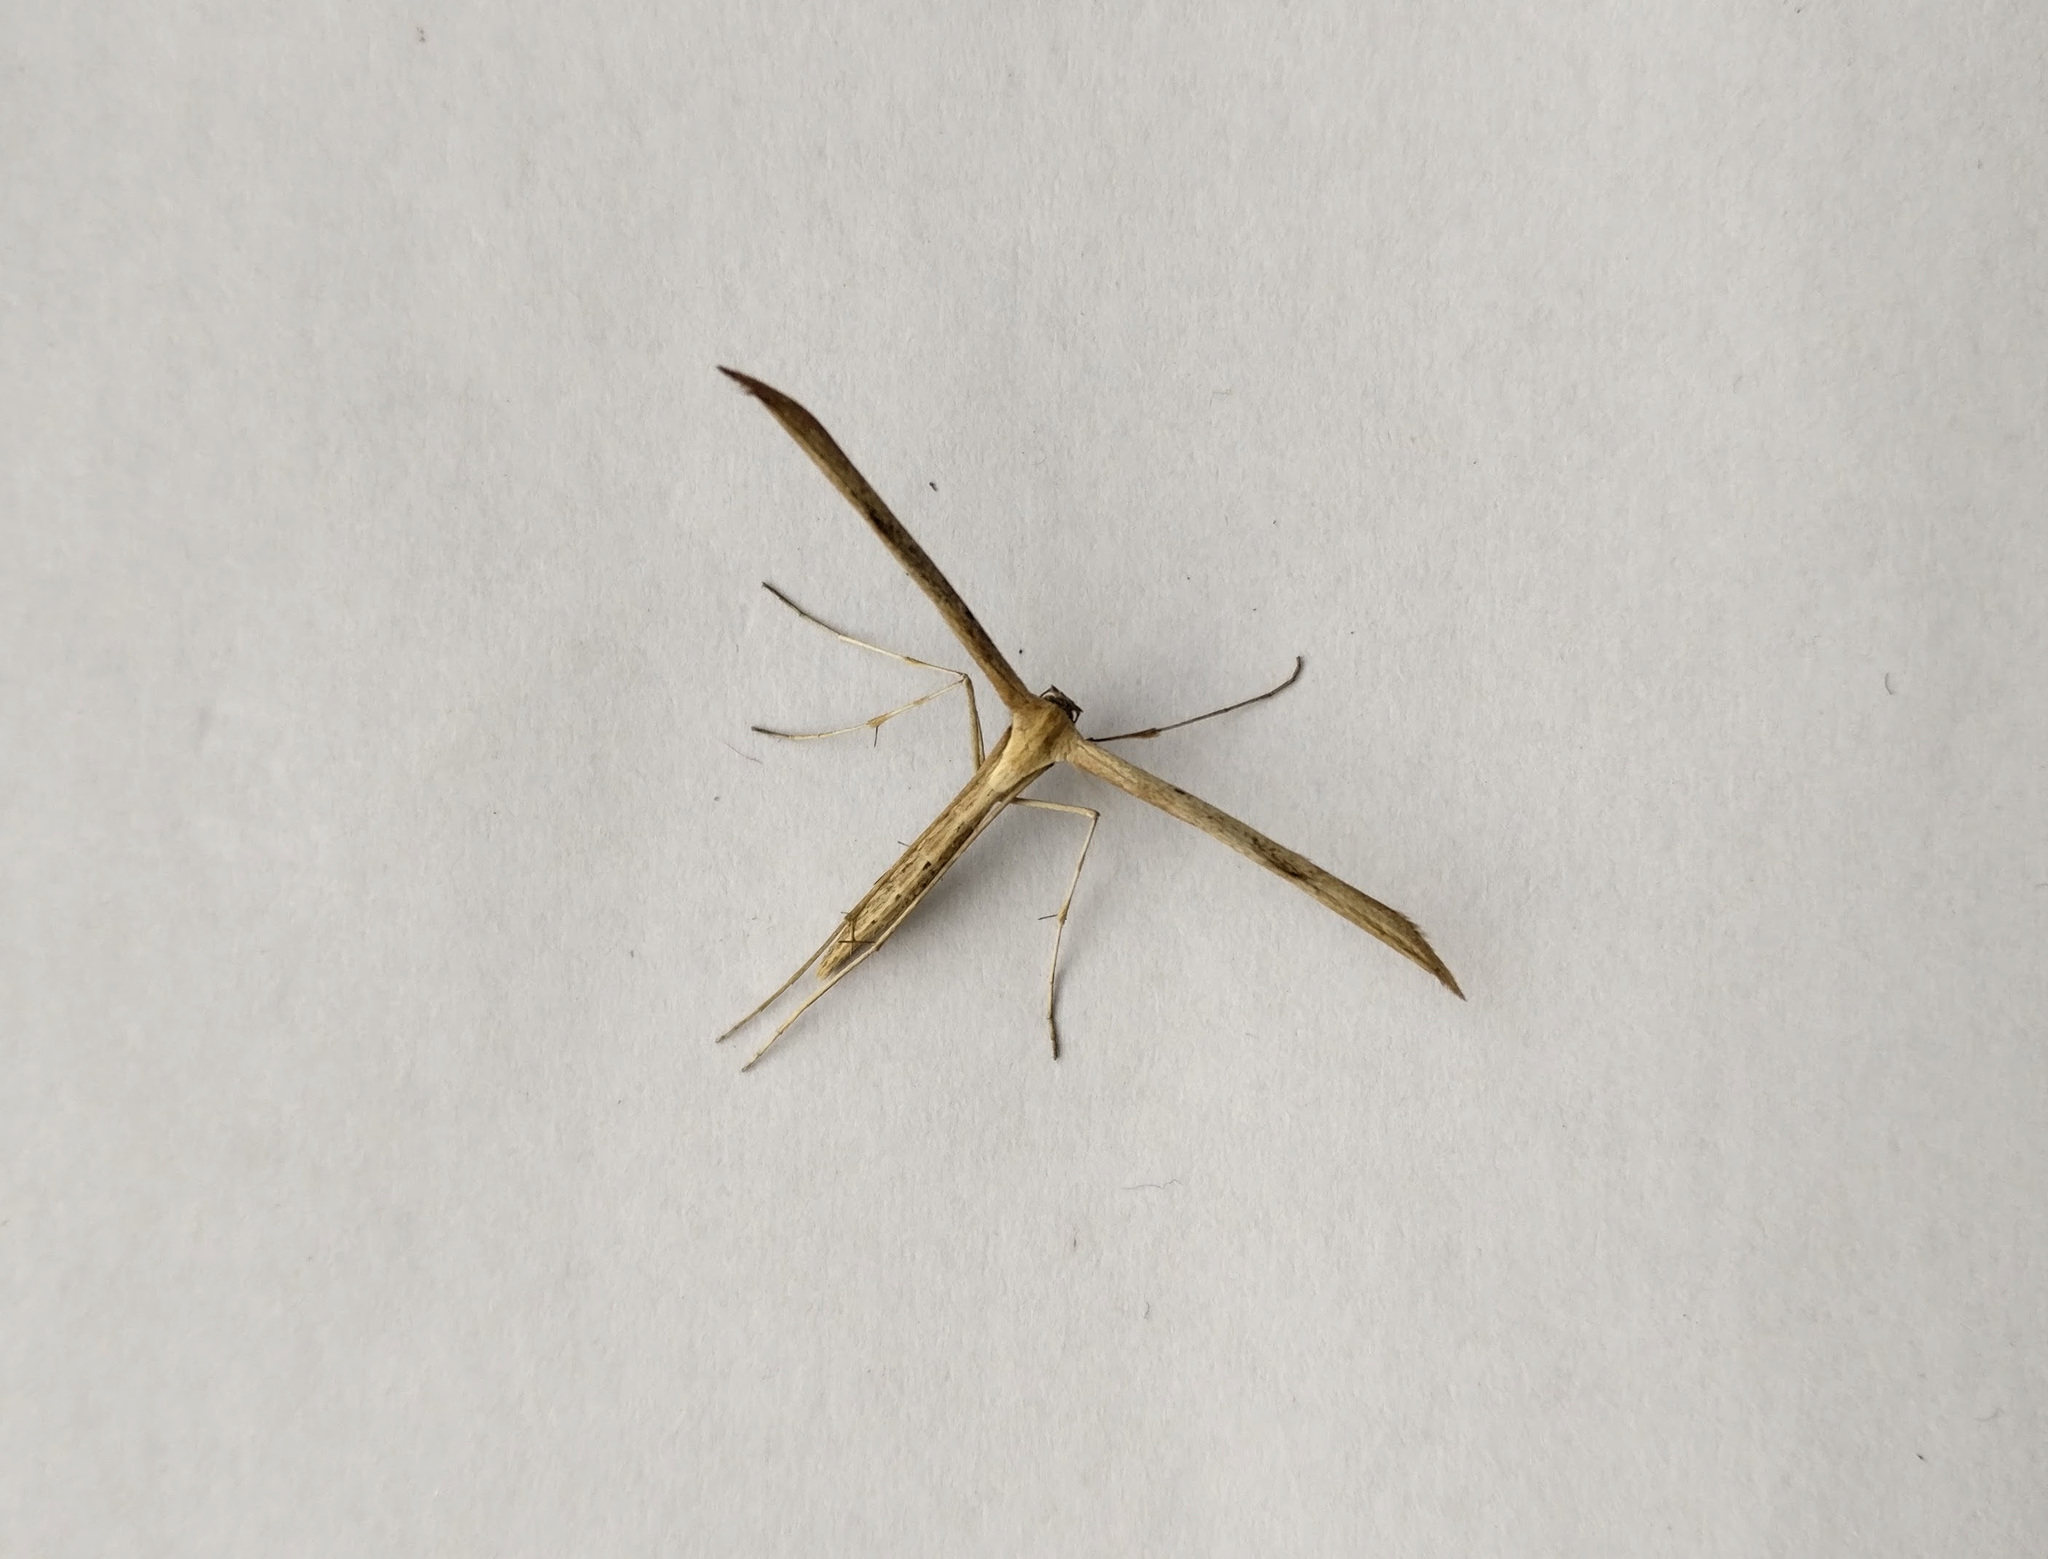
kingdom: Animalia
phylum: Arthropoda
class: Insecta
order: Lepidoptera
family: Pterophoridae
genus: Emmelina
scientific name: Emmelina monodactyla
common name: Common plume
